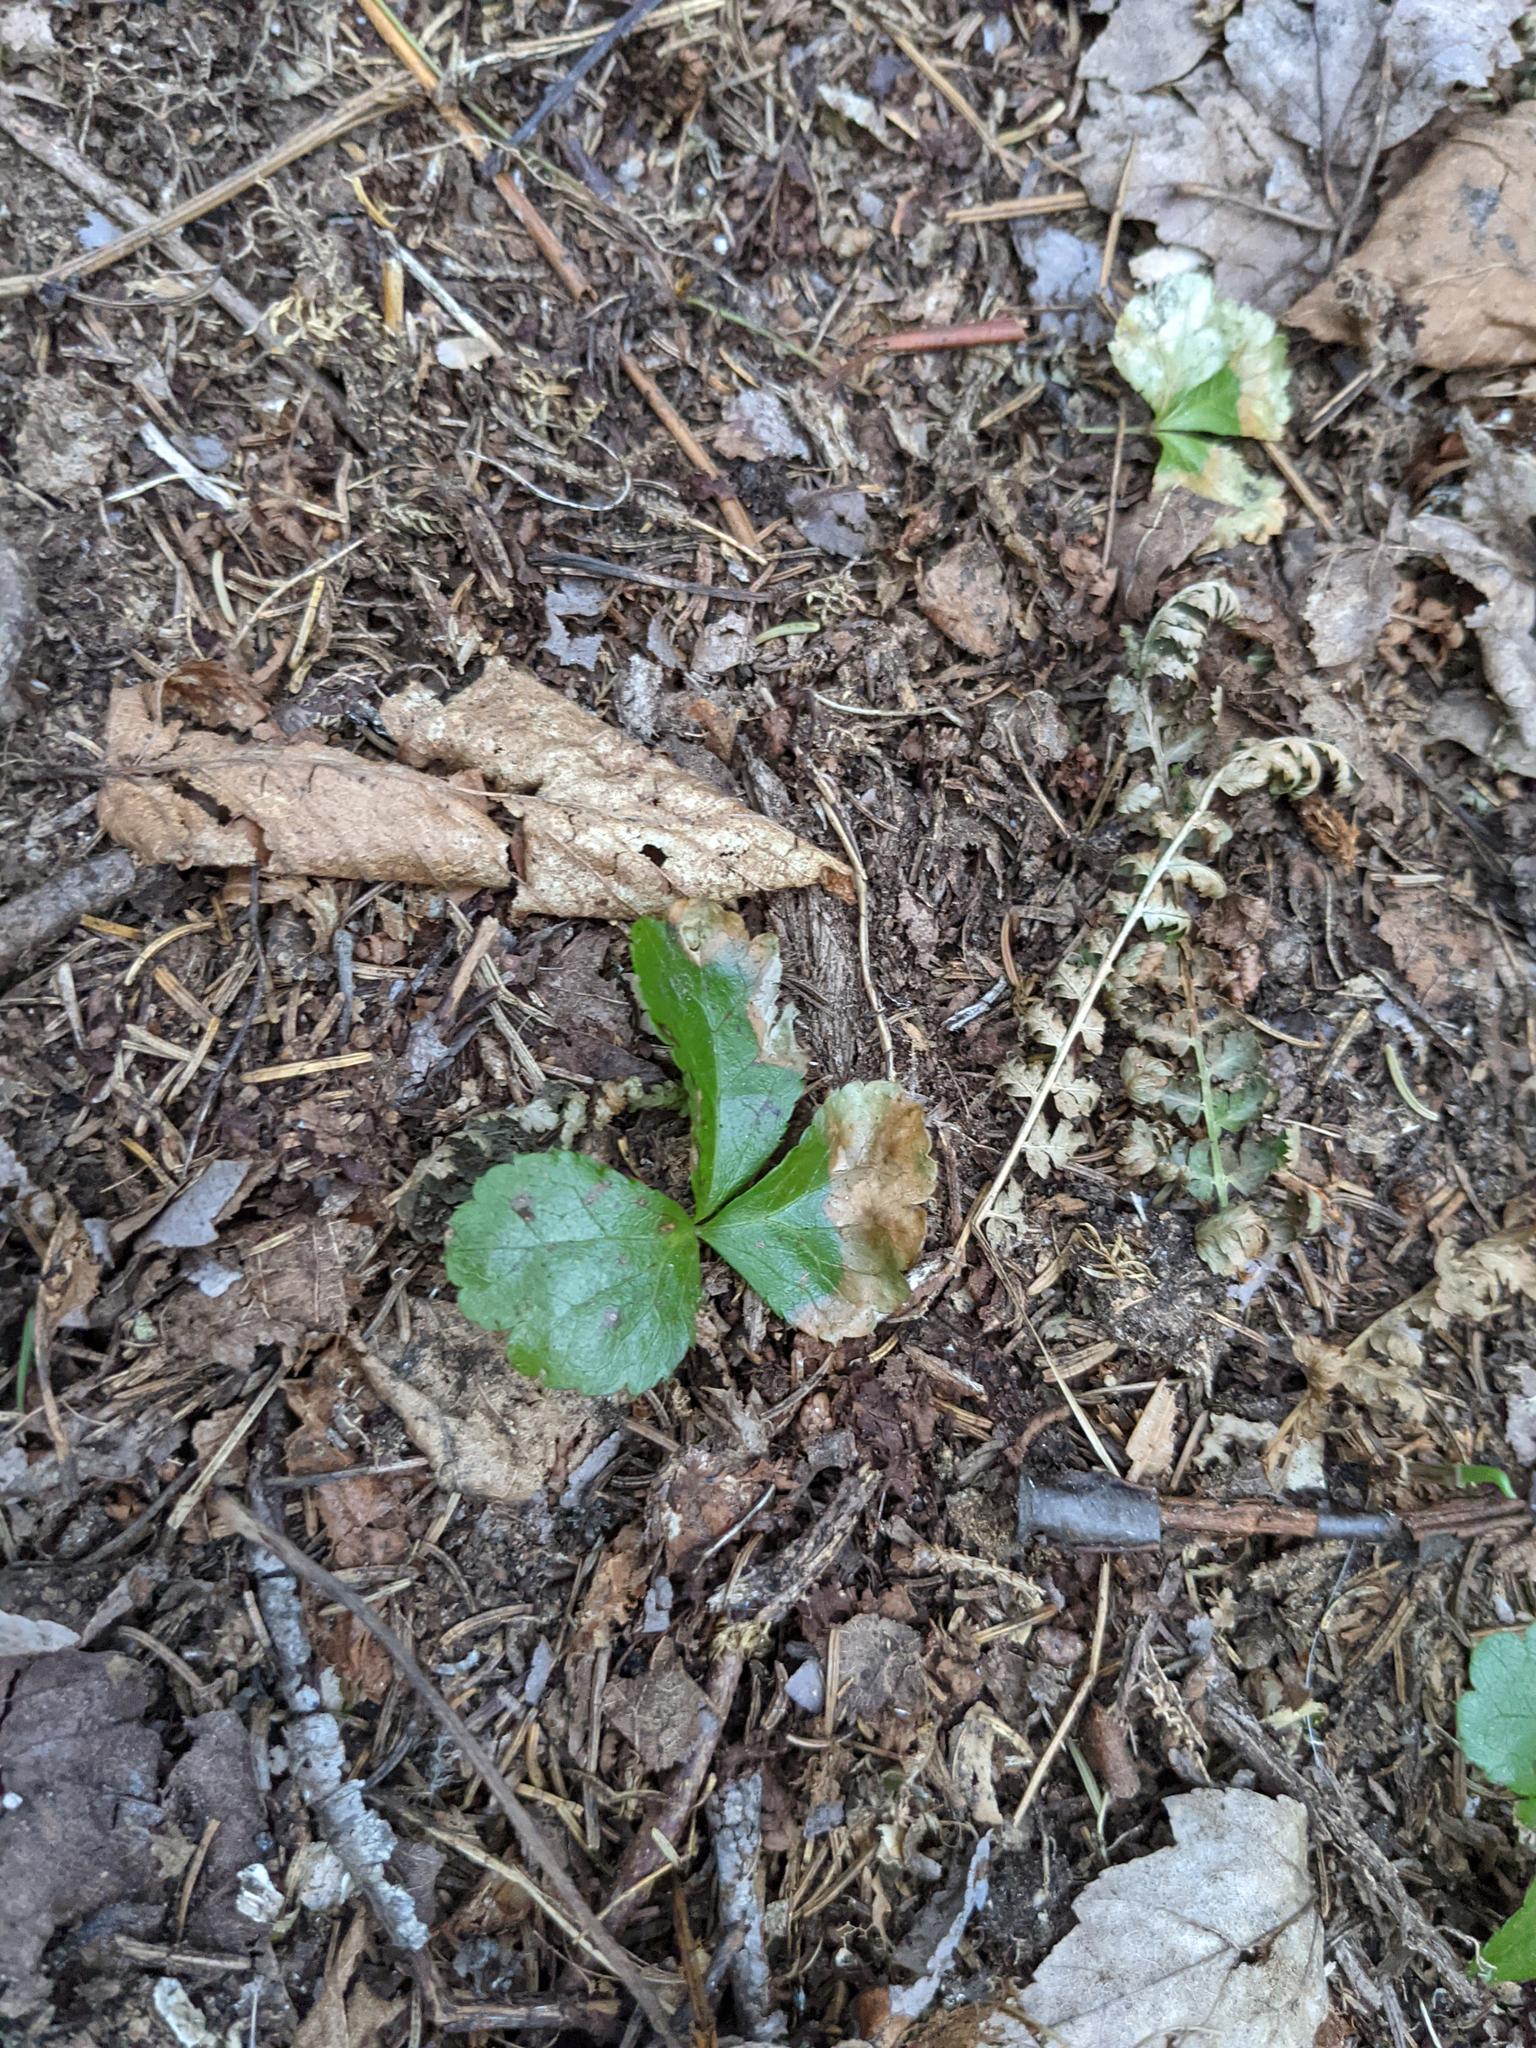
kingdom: Plantae
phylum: Tracheophyta
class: Magnoliopsida
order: Ranunculales
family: Ranunculaceae
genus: Coptis
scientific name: Coptis trifolia
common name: Canker-root
